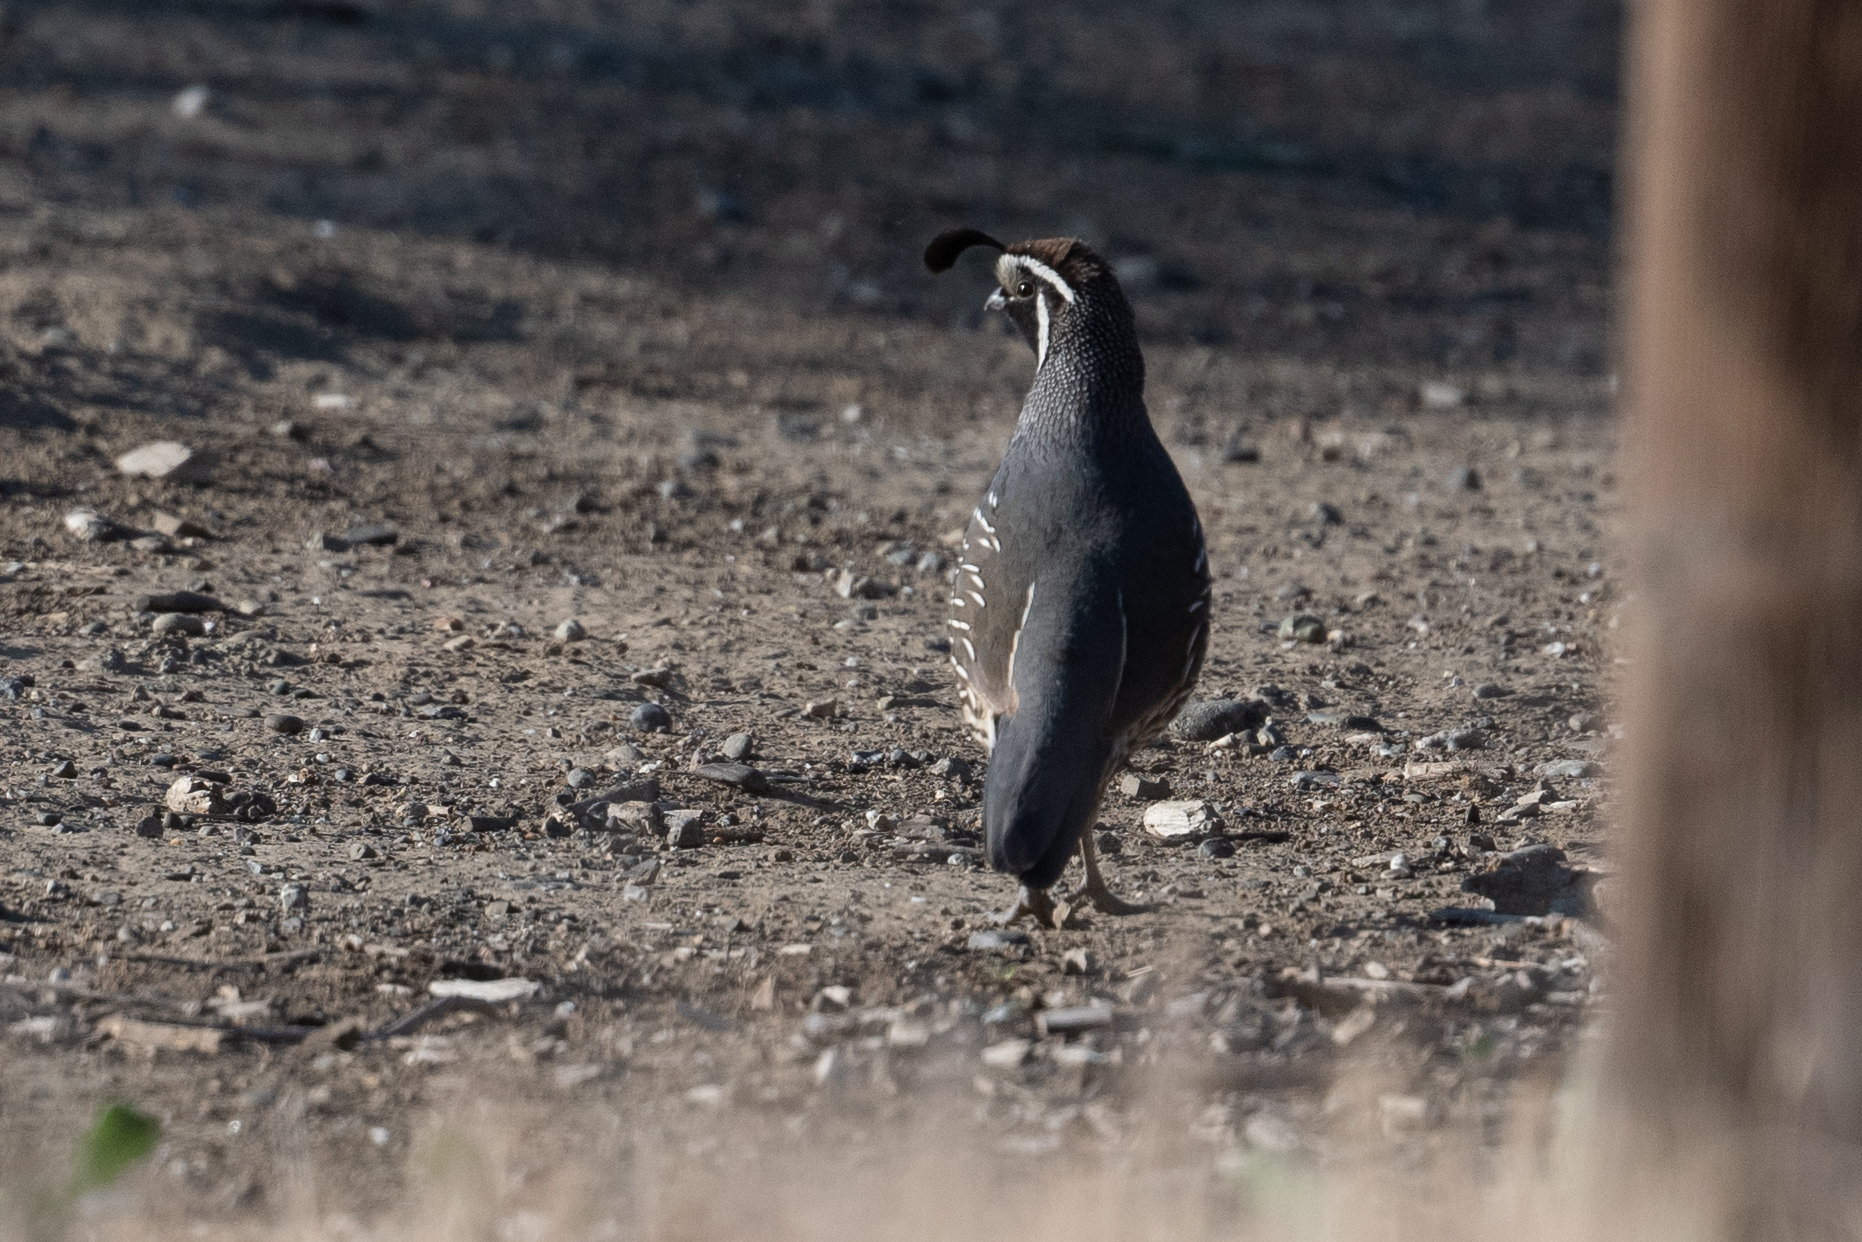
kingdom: Animalia
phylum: Chordata
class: Aves
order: Galliformes
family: Odontophoridae
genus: Callipepla
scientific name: Callipepla californica
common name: California quail
